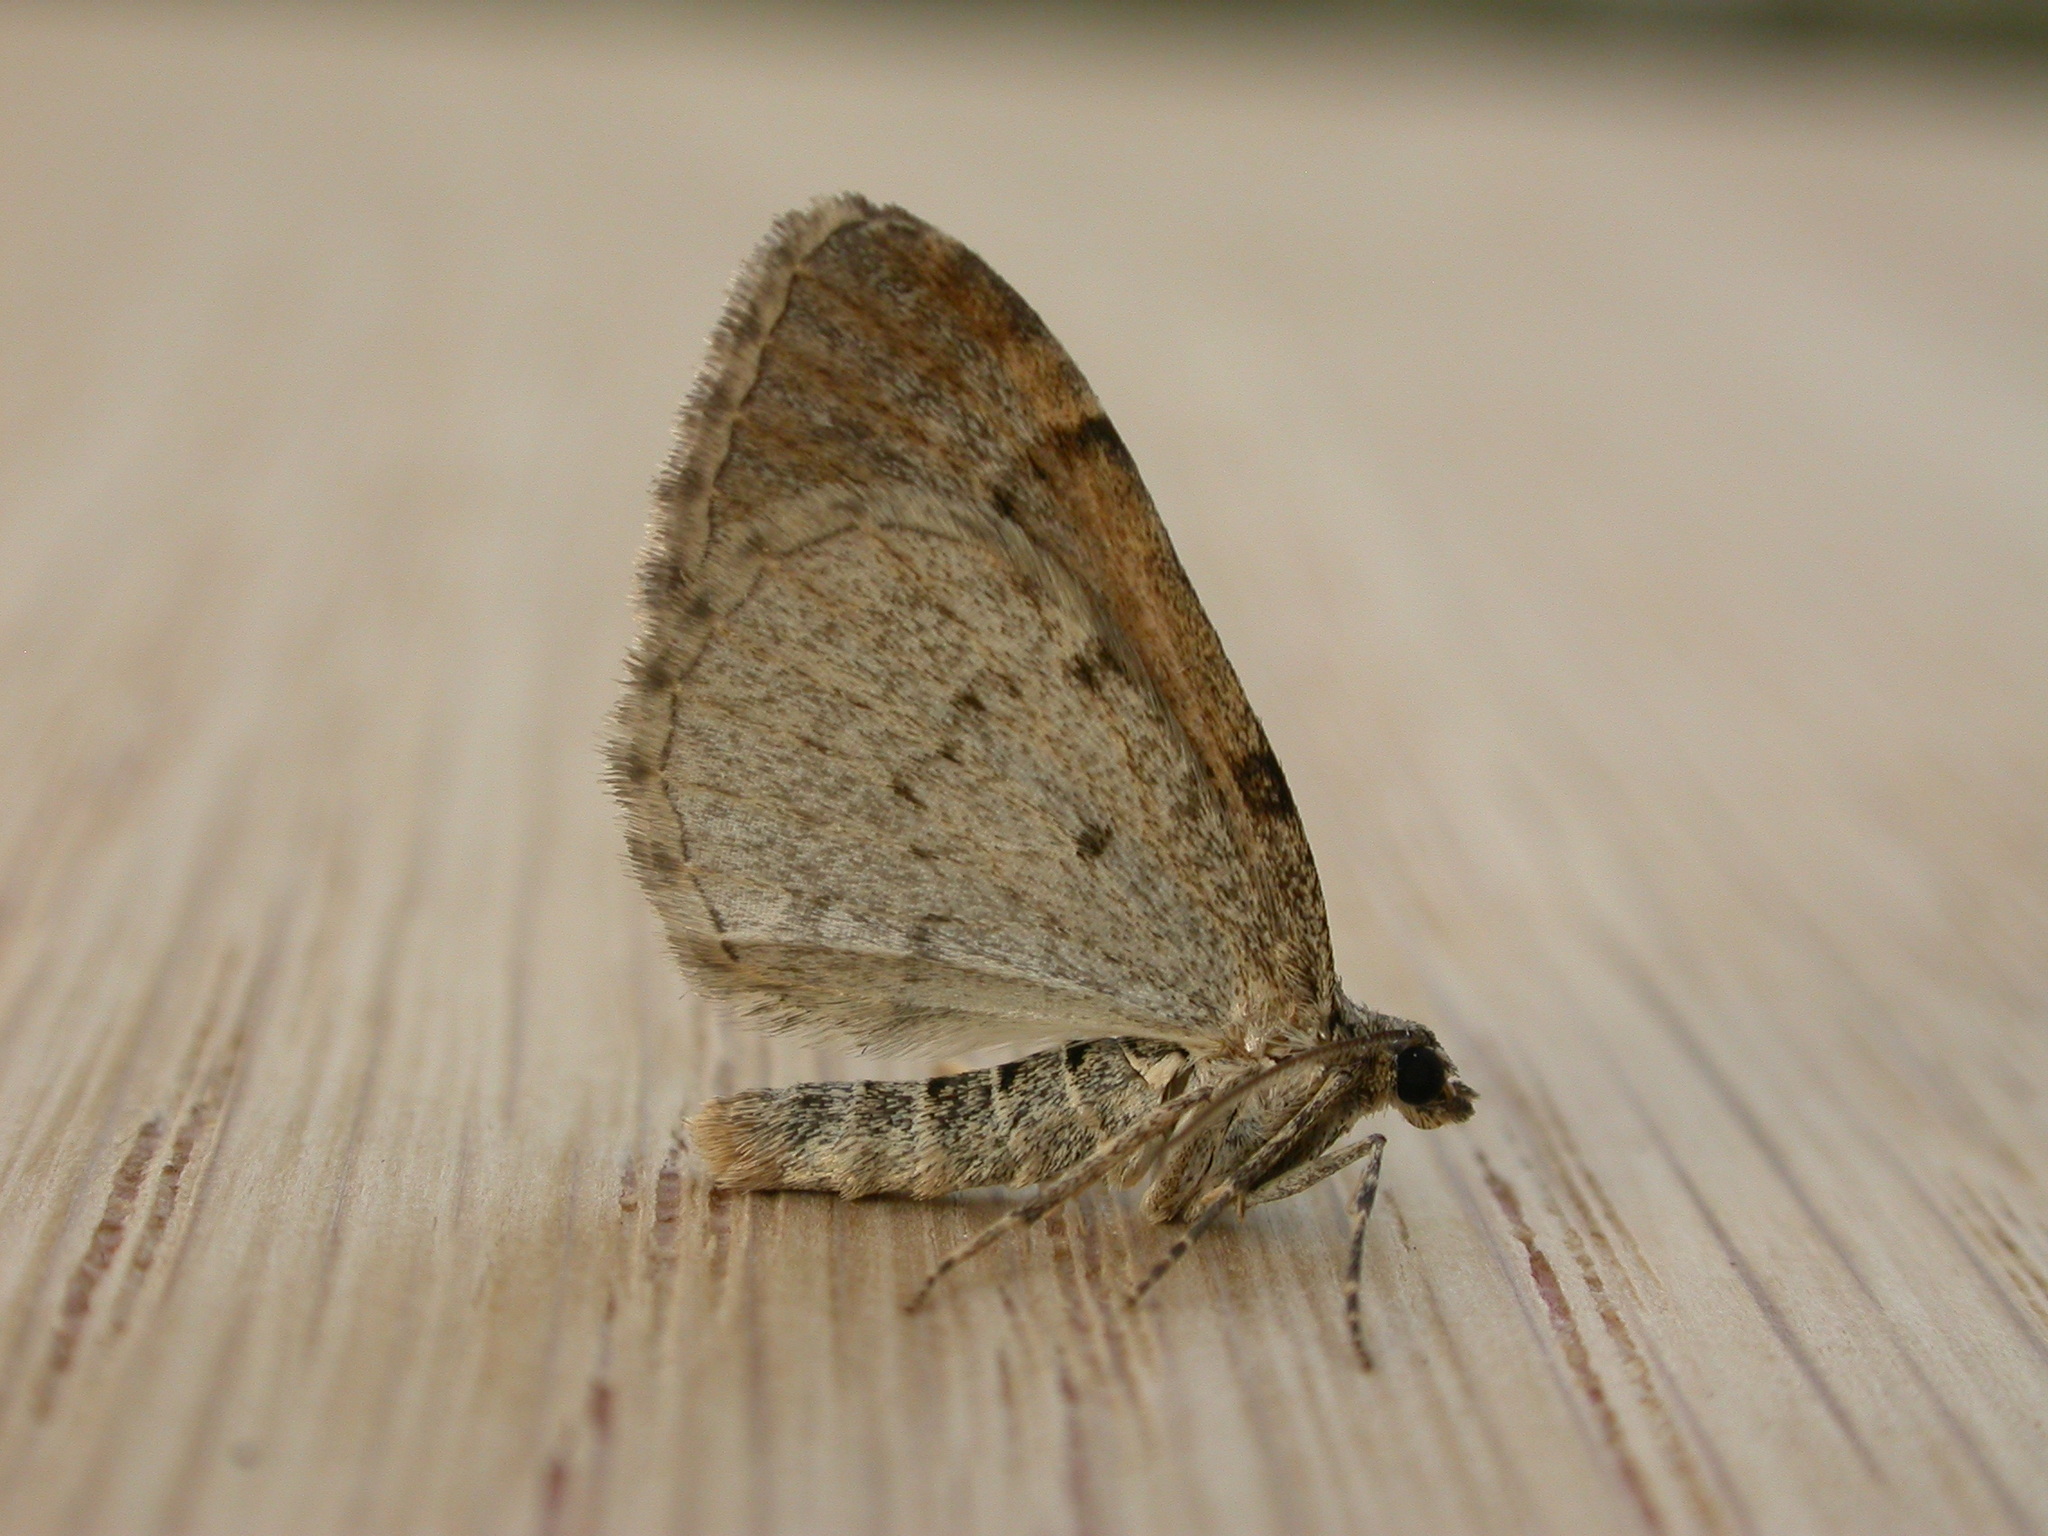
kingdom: Animalia
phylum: Arthropoda
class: Insecta
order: Lepidoptera
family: Geometridae
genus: Xanthorhoe
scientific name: Xanthorhoe designata
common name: Flame carpet
